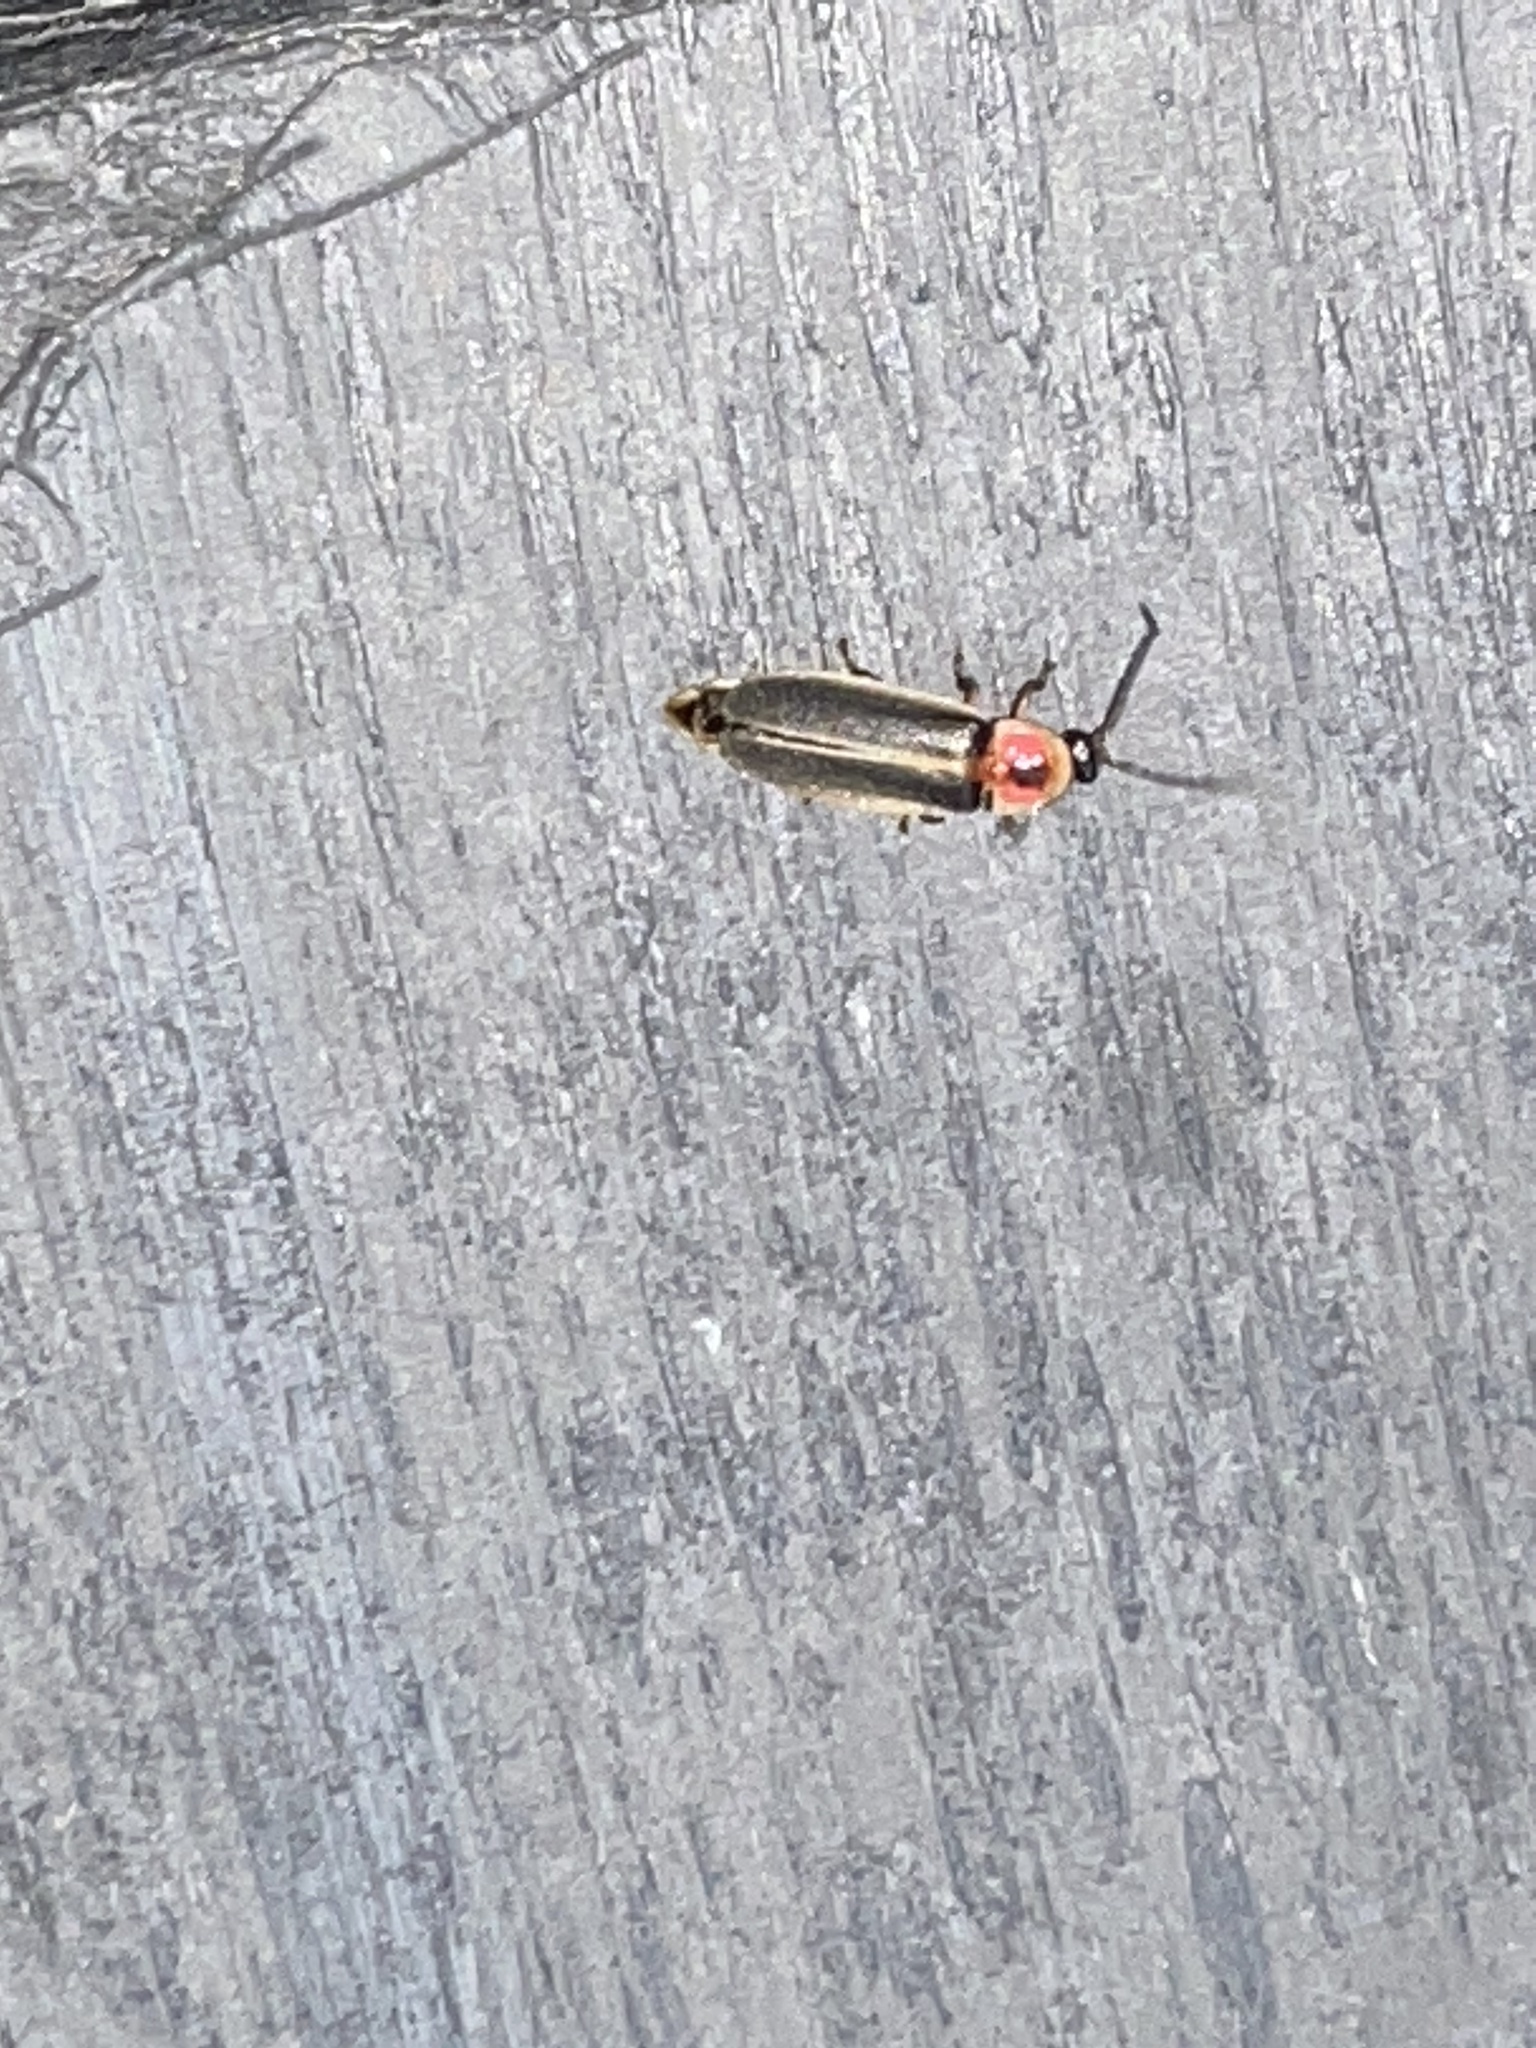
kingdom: Animalia
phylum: Arthropoda
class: Insecta
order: Coleoptera
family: Lampyridae
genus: Photinus
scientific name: Photinus pyralis
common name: Big dipper firefly
